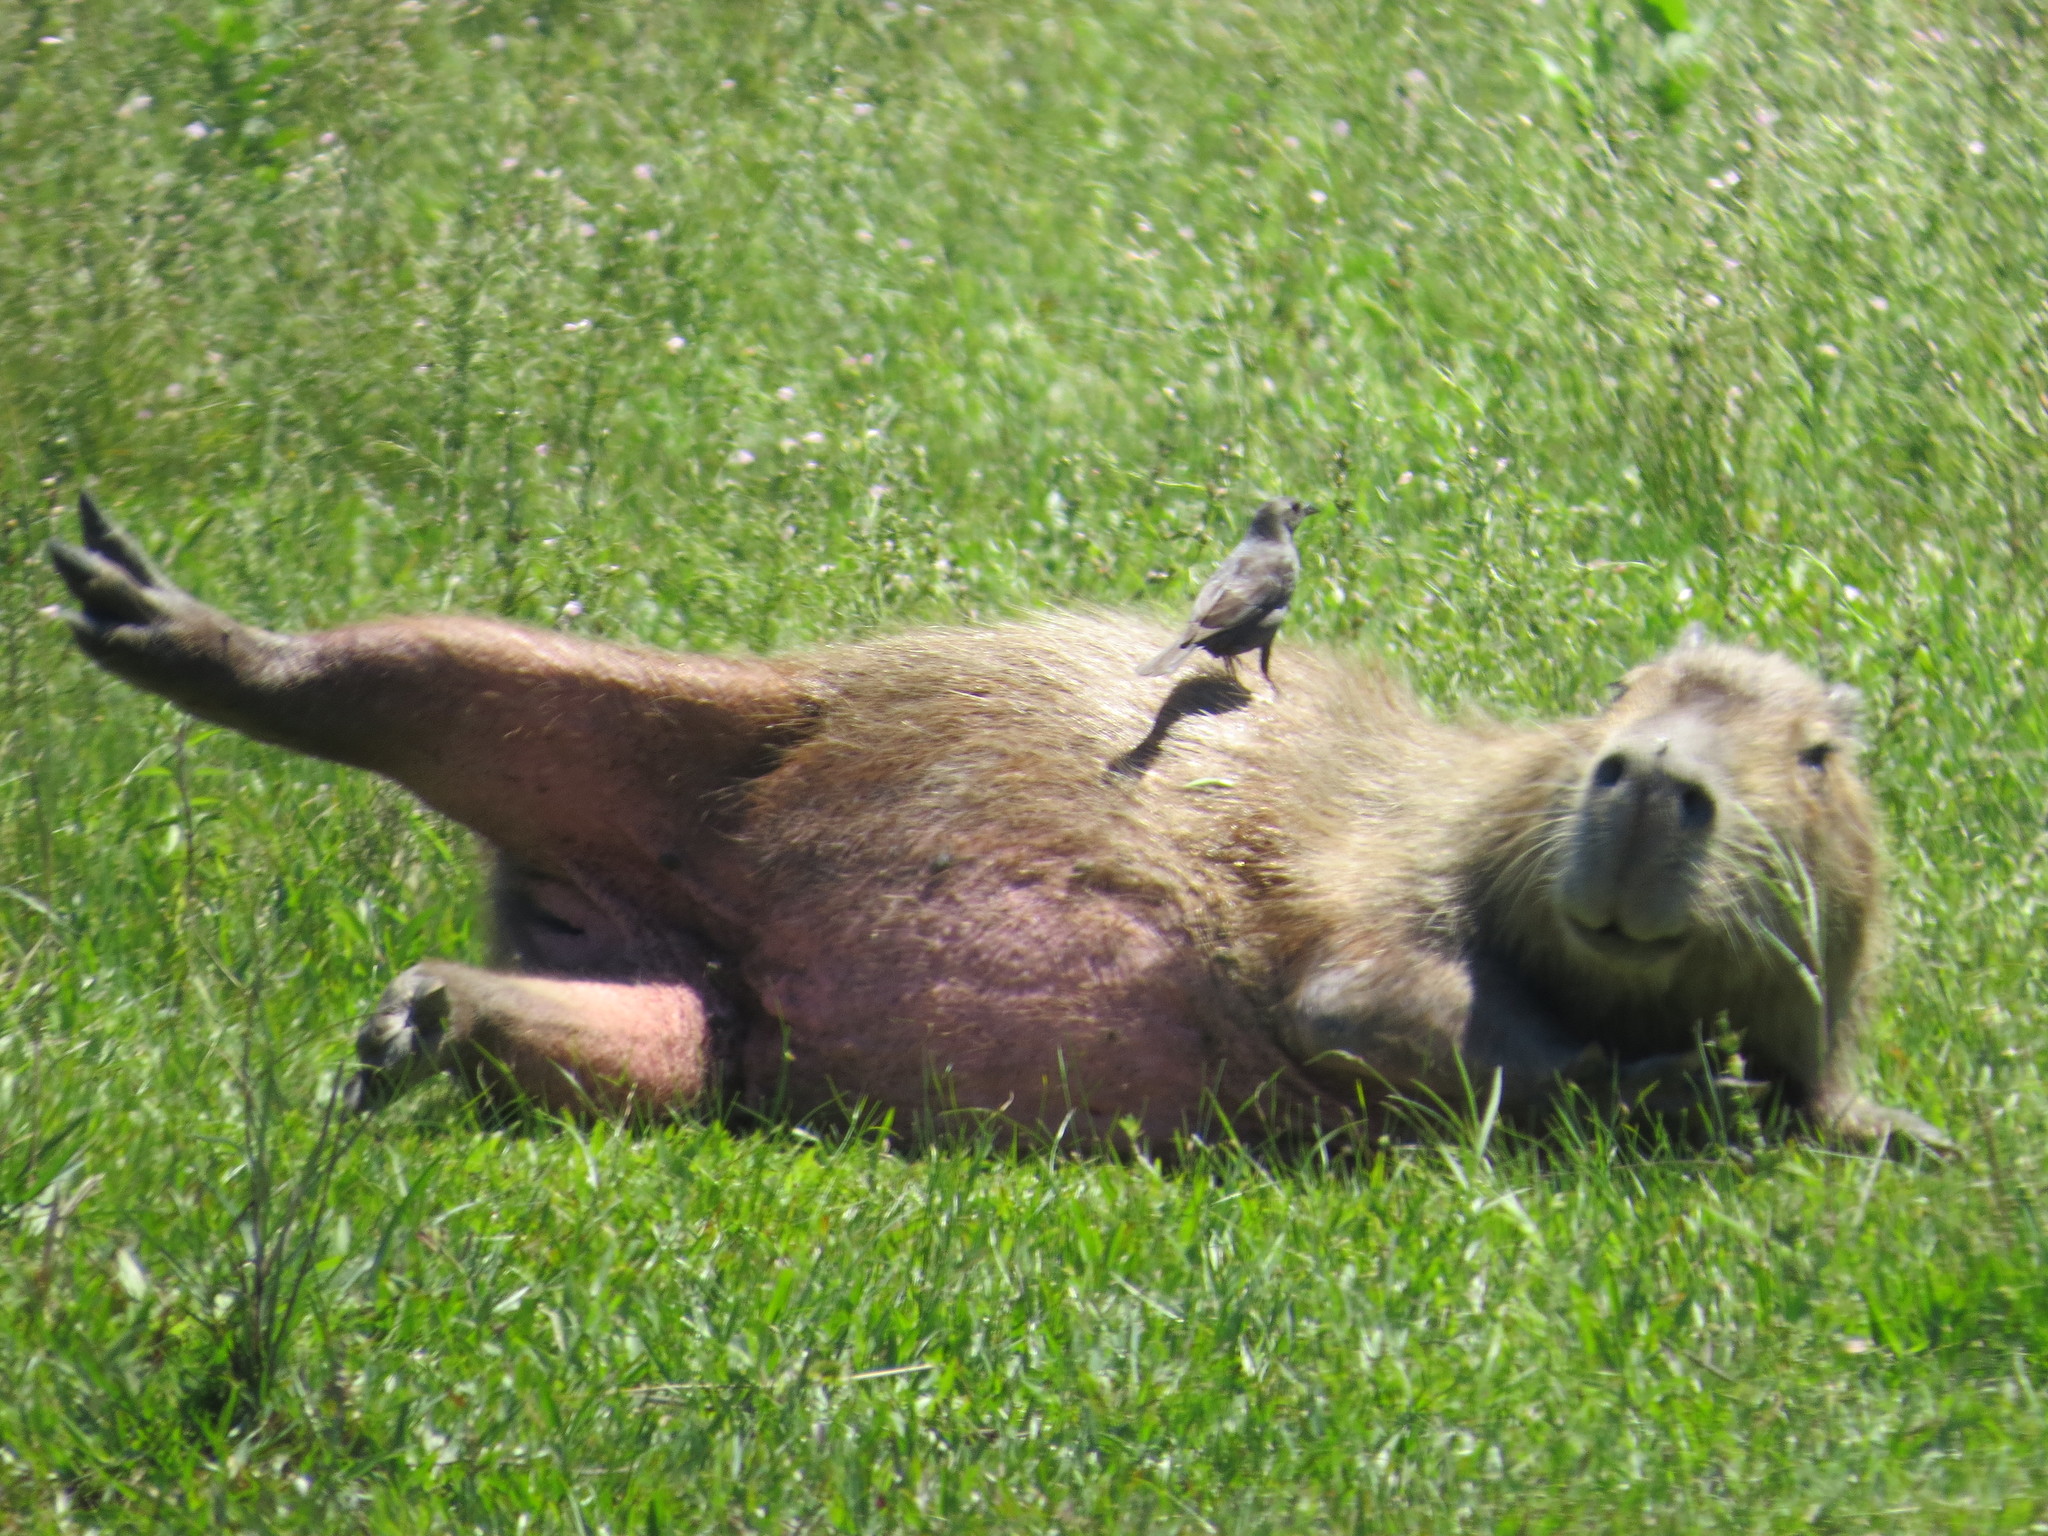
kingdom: Animalia
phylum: Chordata
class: Mammalia
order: Rodentia
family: Caviidae
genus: Hydrochoerus
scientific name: Hydrochoerus hydrochaeris
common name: Capybara
